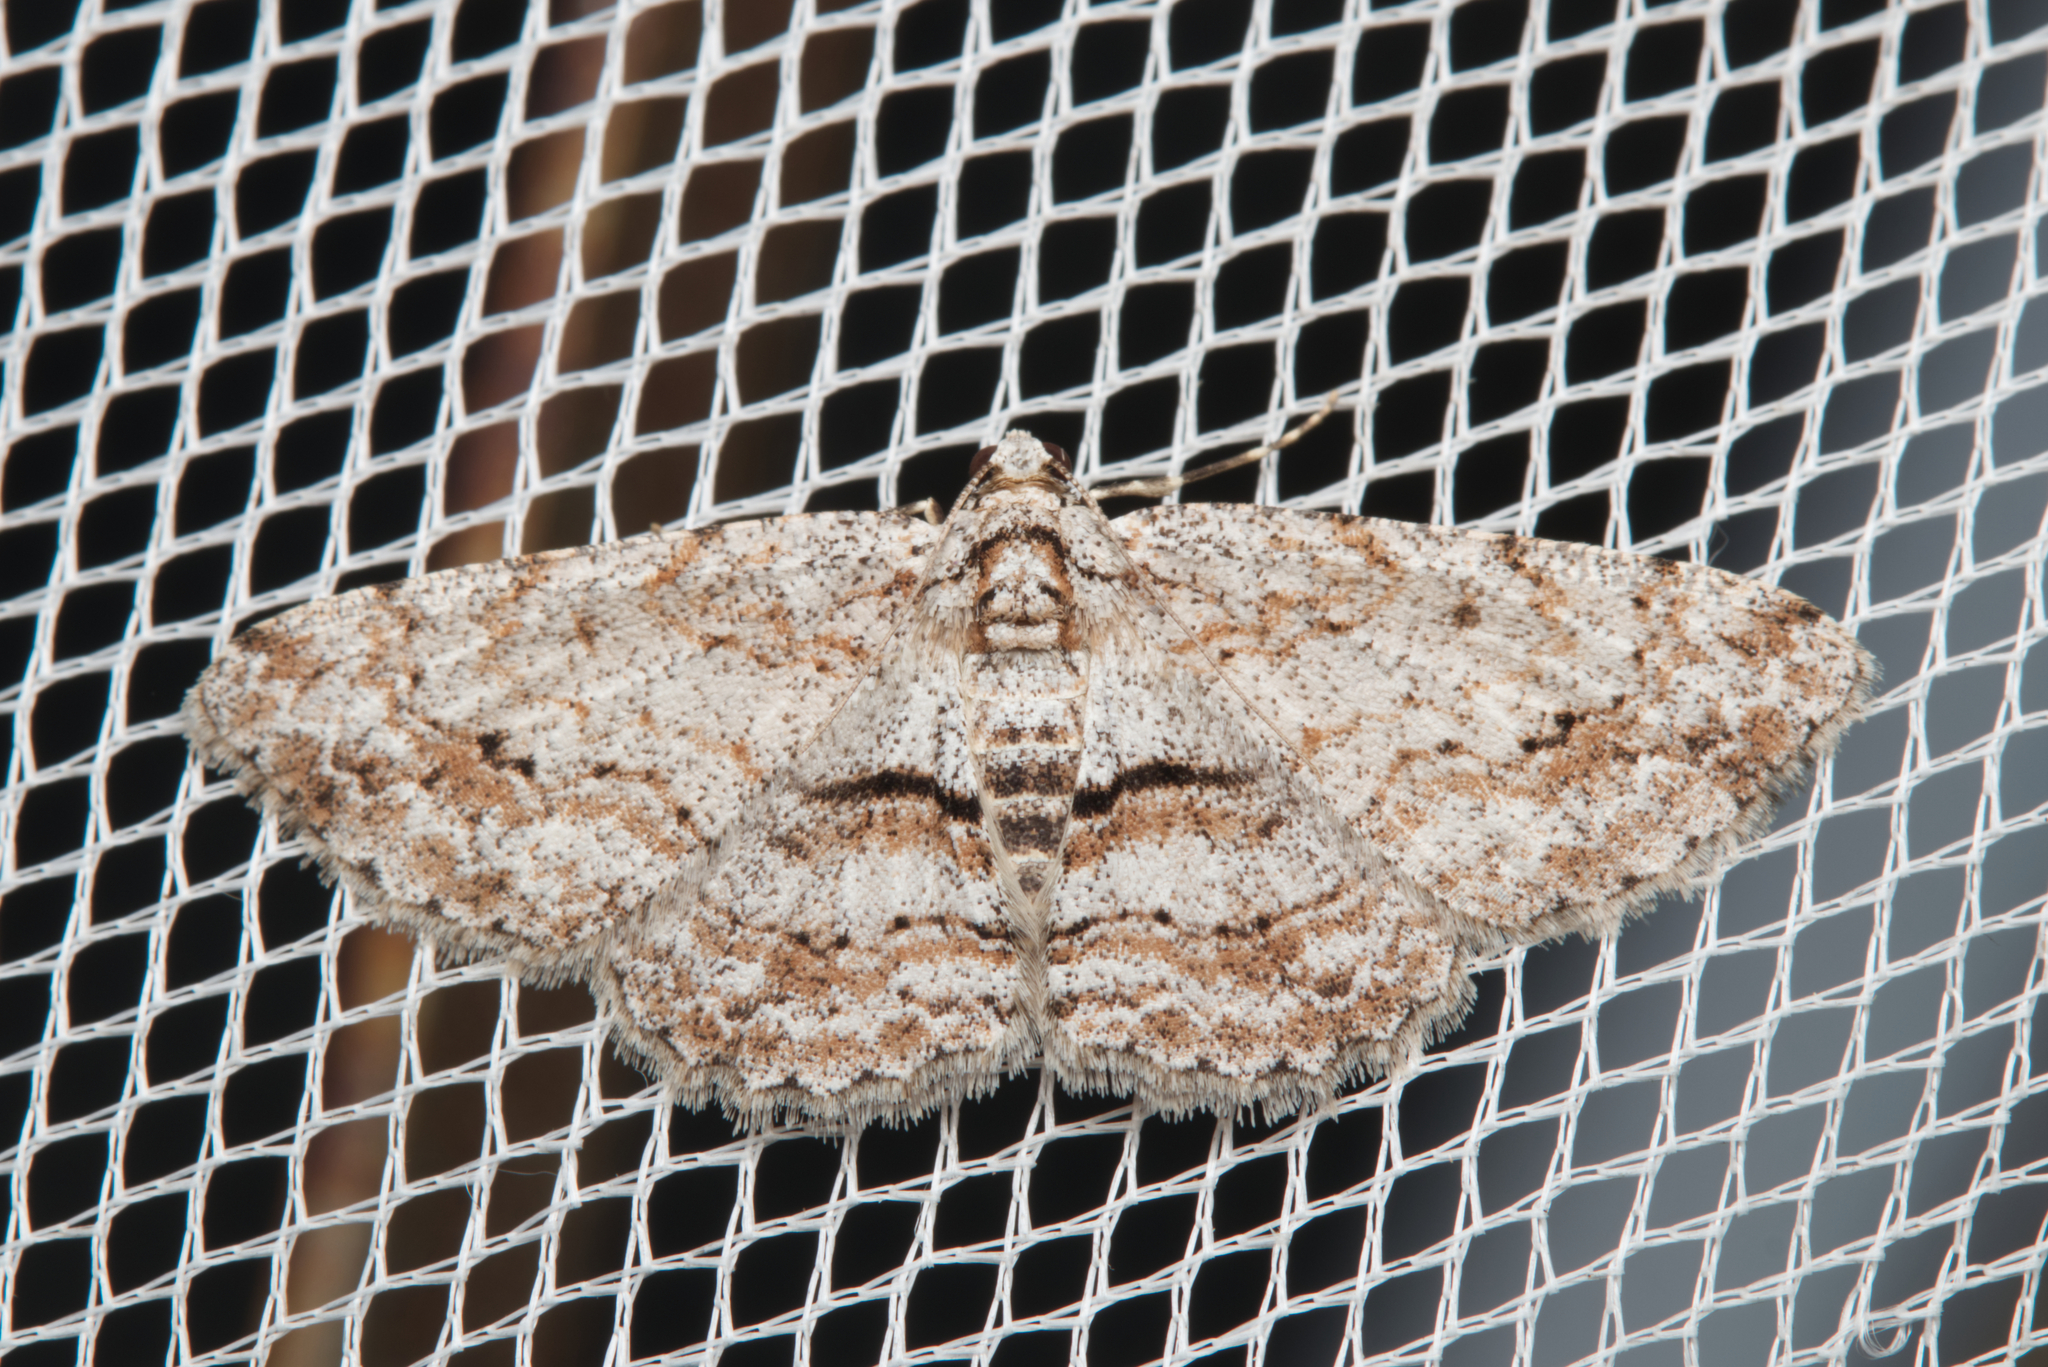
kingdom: Animalia
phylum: Arthropoda
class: Insecta
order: Lepidoptera
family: Geometridae
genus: Didymoctenia
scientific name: Didymoctenia exsuperata
